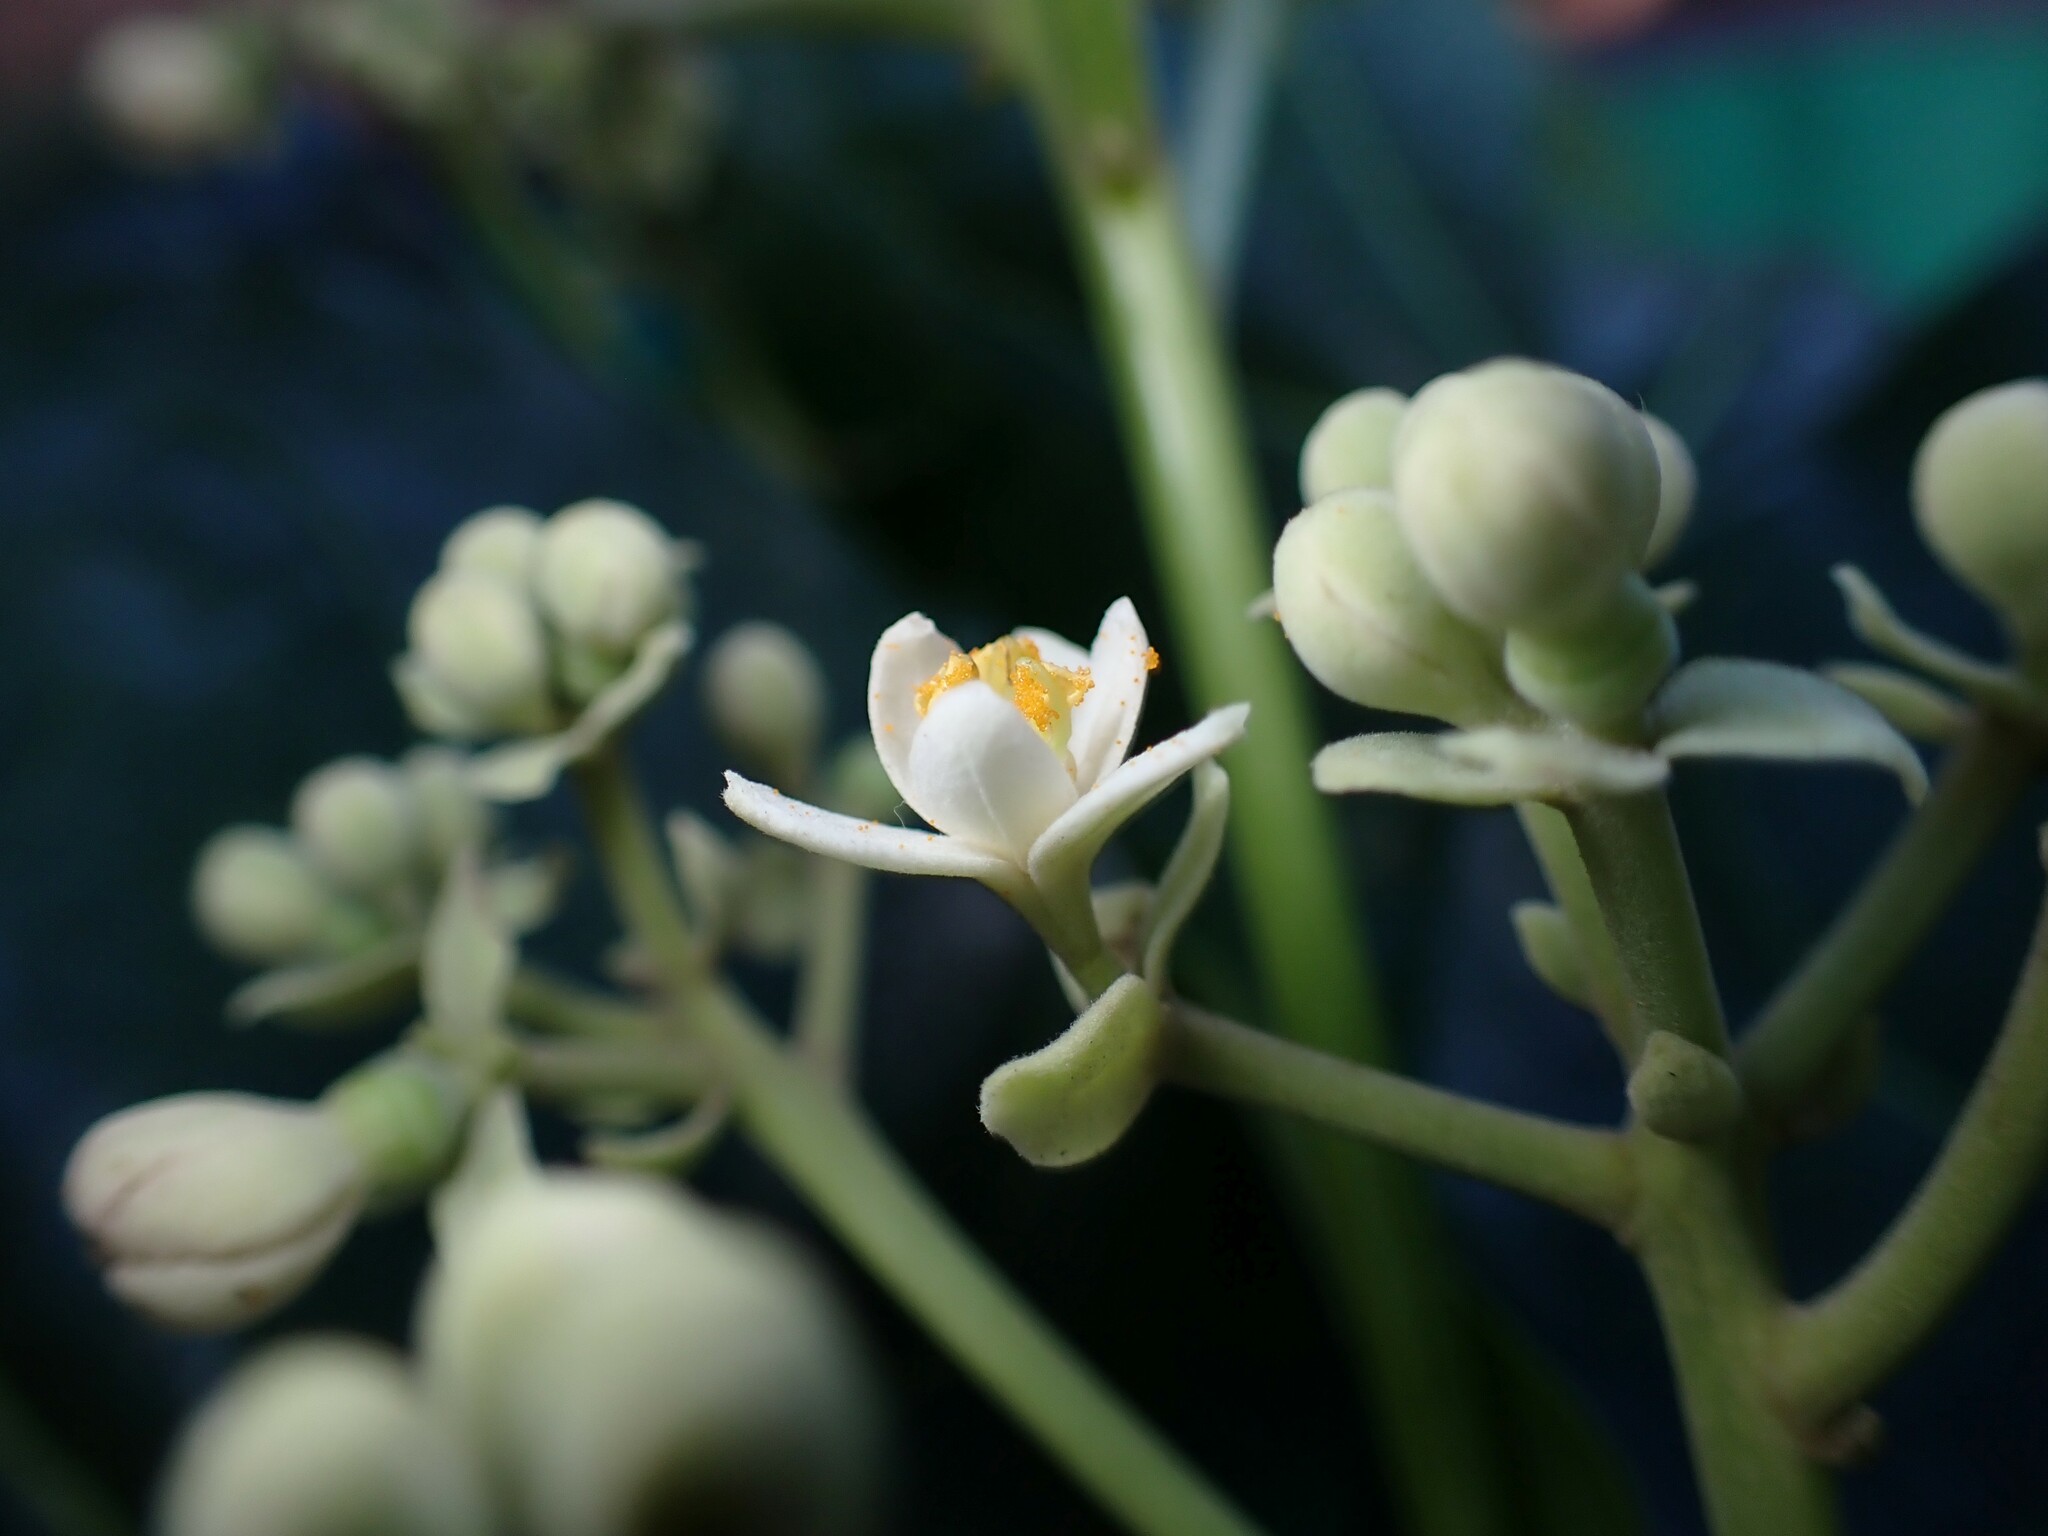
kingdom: Plantae
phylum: Tracheophyta
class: Magnoliopsida
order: Laurales
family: Hernandiaceae
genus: Hernandia
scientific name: Hernandia nymphaeifolia
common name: Sea hearse
